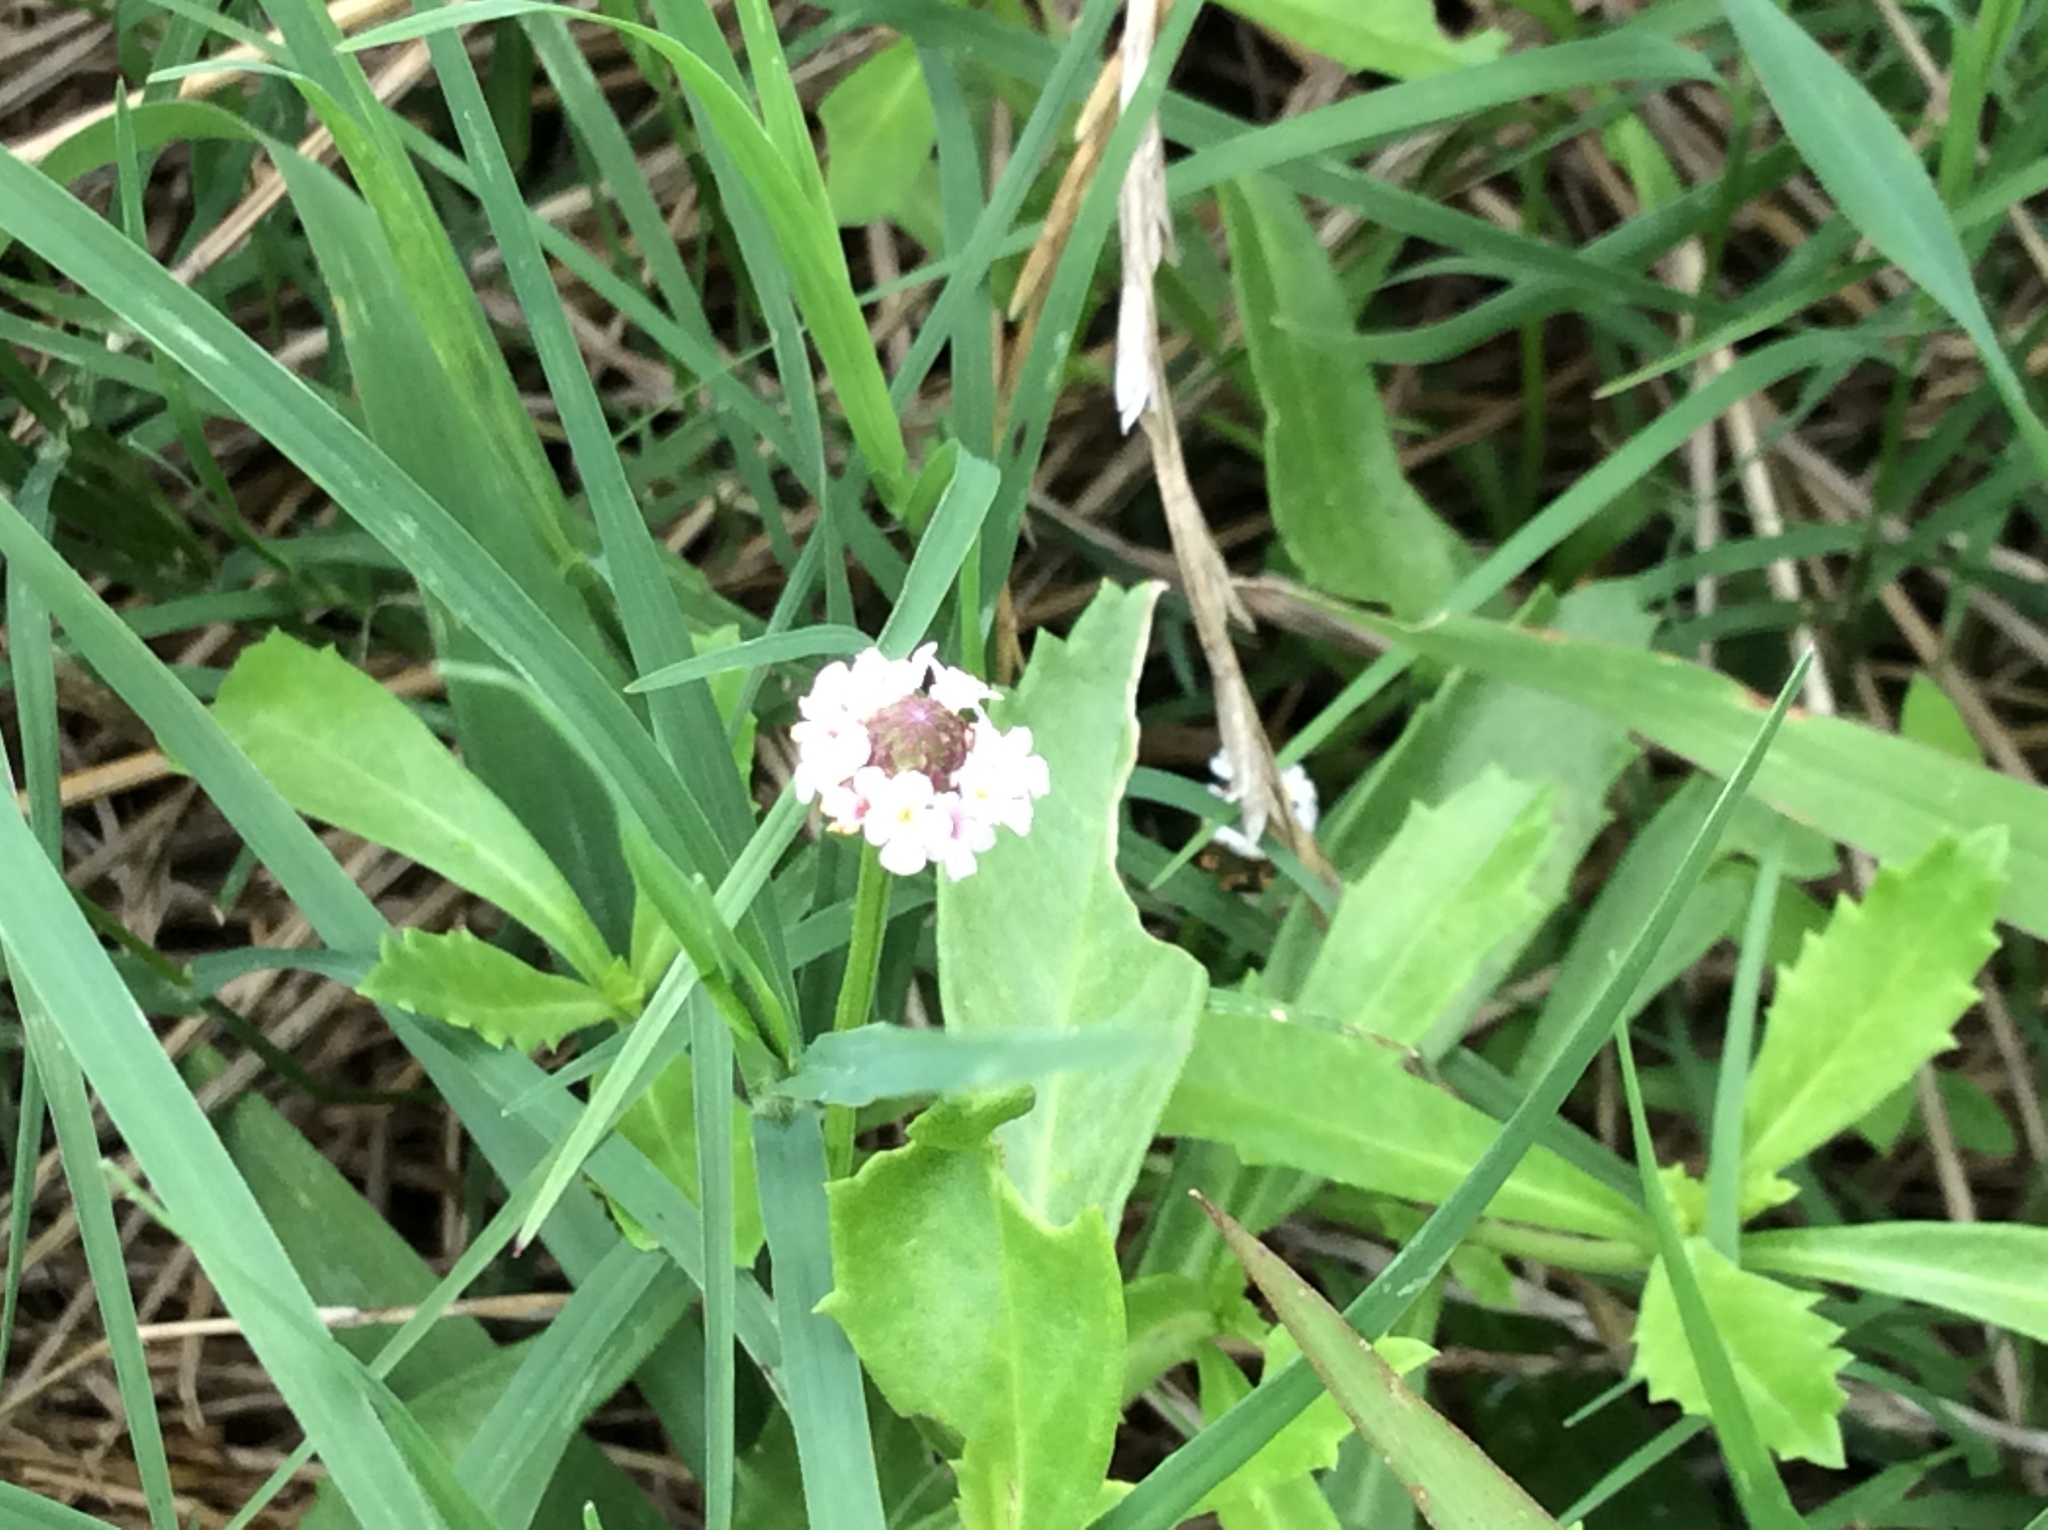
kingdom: Plantae
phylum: Tracheophyta
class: Magnoliopsida
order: Lamiales
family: Verbenaceae
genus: Phyla
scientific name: Phyla nodiflora
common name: Frogfruit
